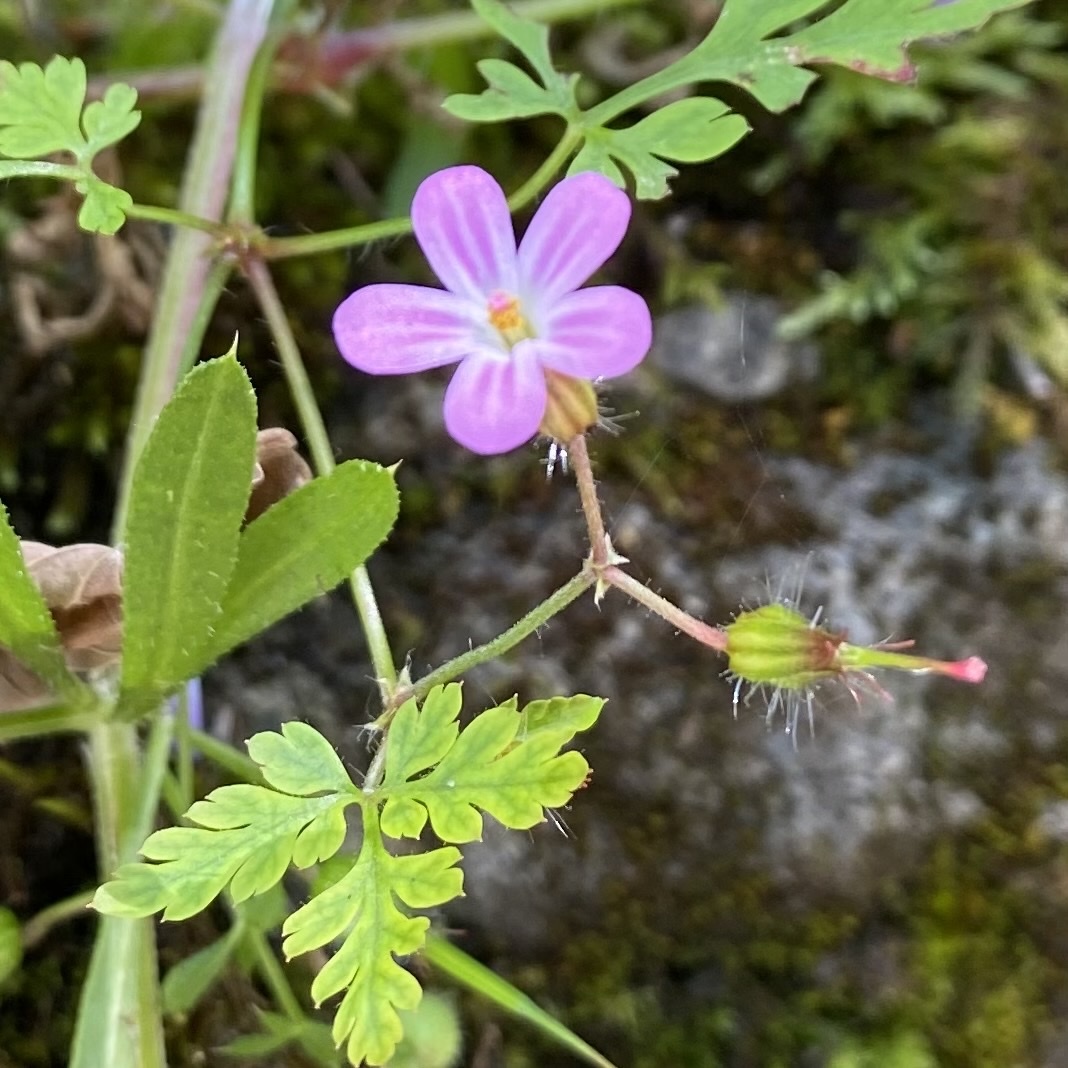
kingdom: Plantae
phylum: Tracheophyta
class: Magnoliopsida
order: Geraniales
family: Geraniaceae
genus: Geranium
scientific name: Geranium robertianum
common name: Herb-robert
